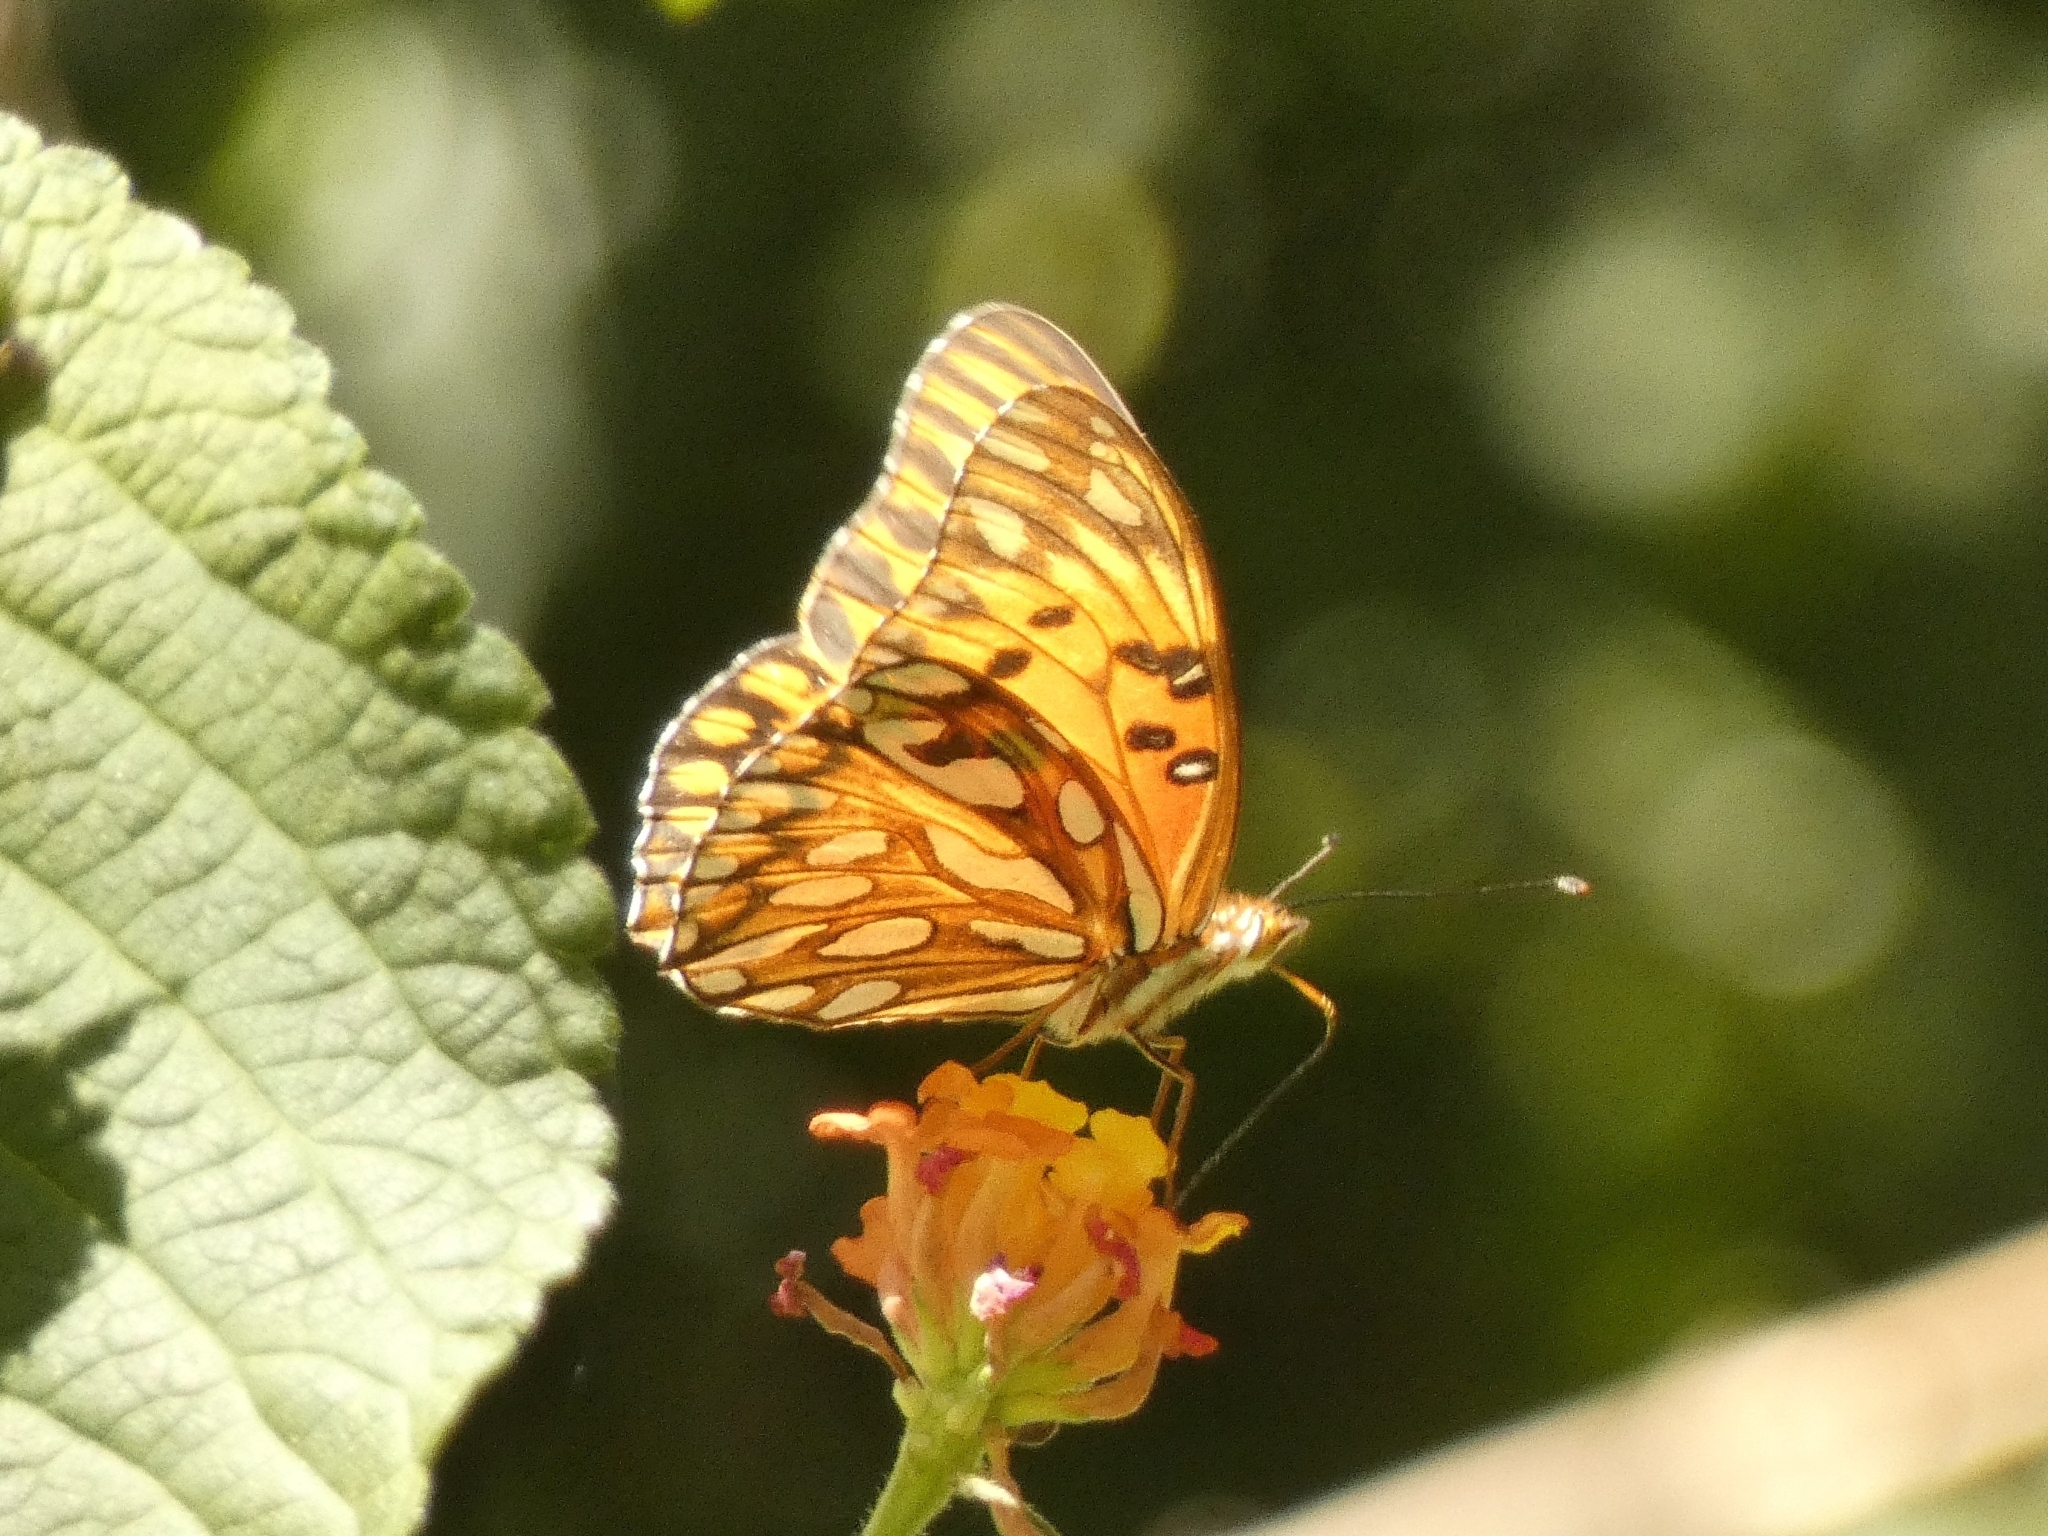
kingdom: Animalia
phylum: Arthropoda
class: Insecta
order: Lepidoptera
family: Nymphalidae
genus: Dione
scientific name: Dione vanillae
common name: Gulf fritillary
